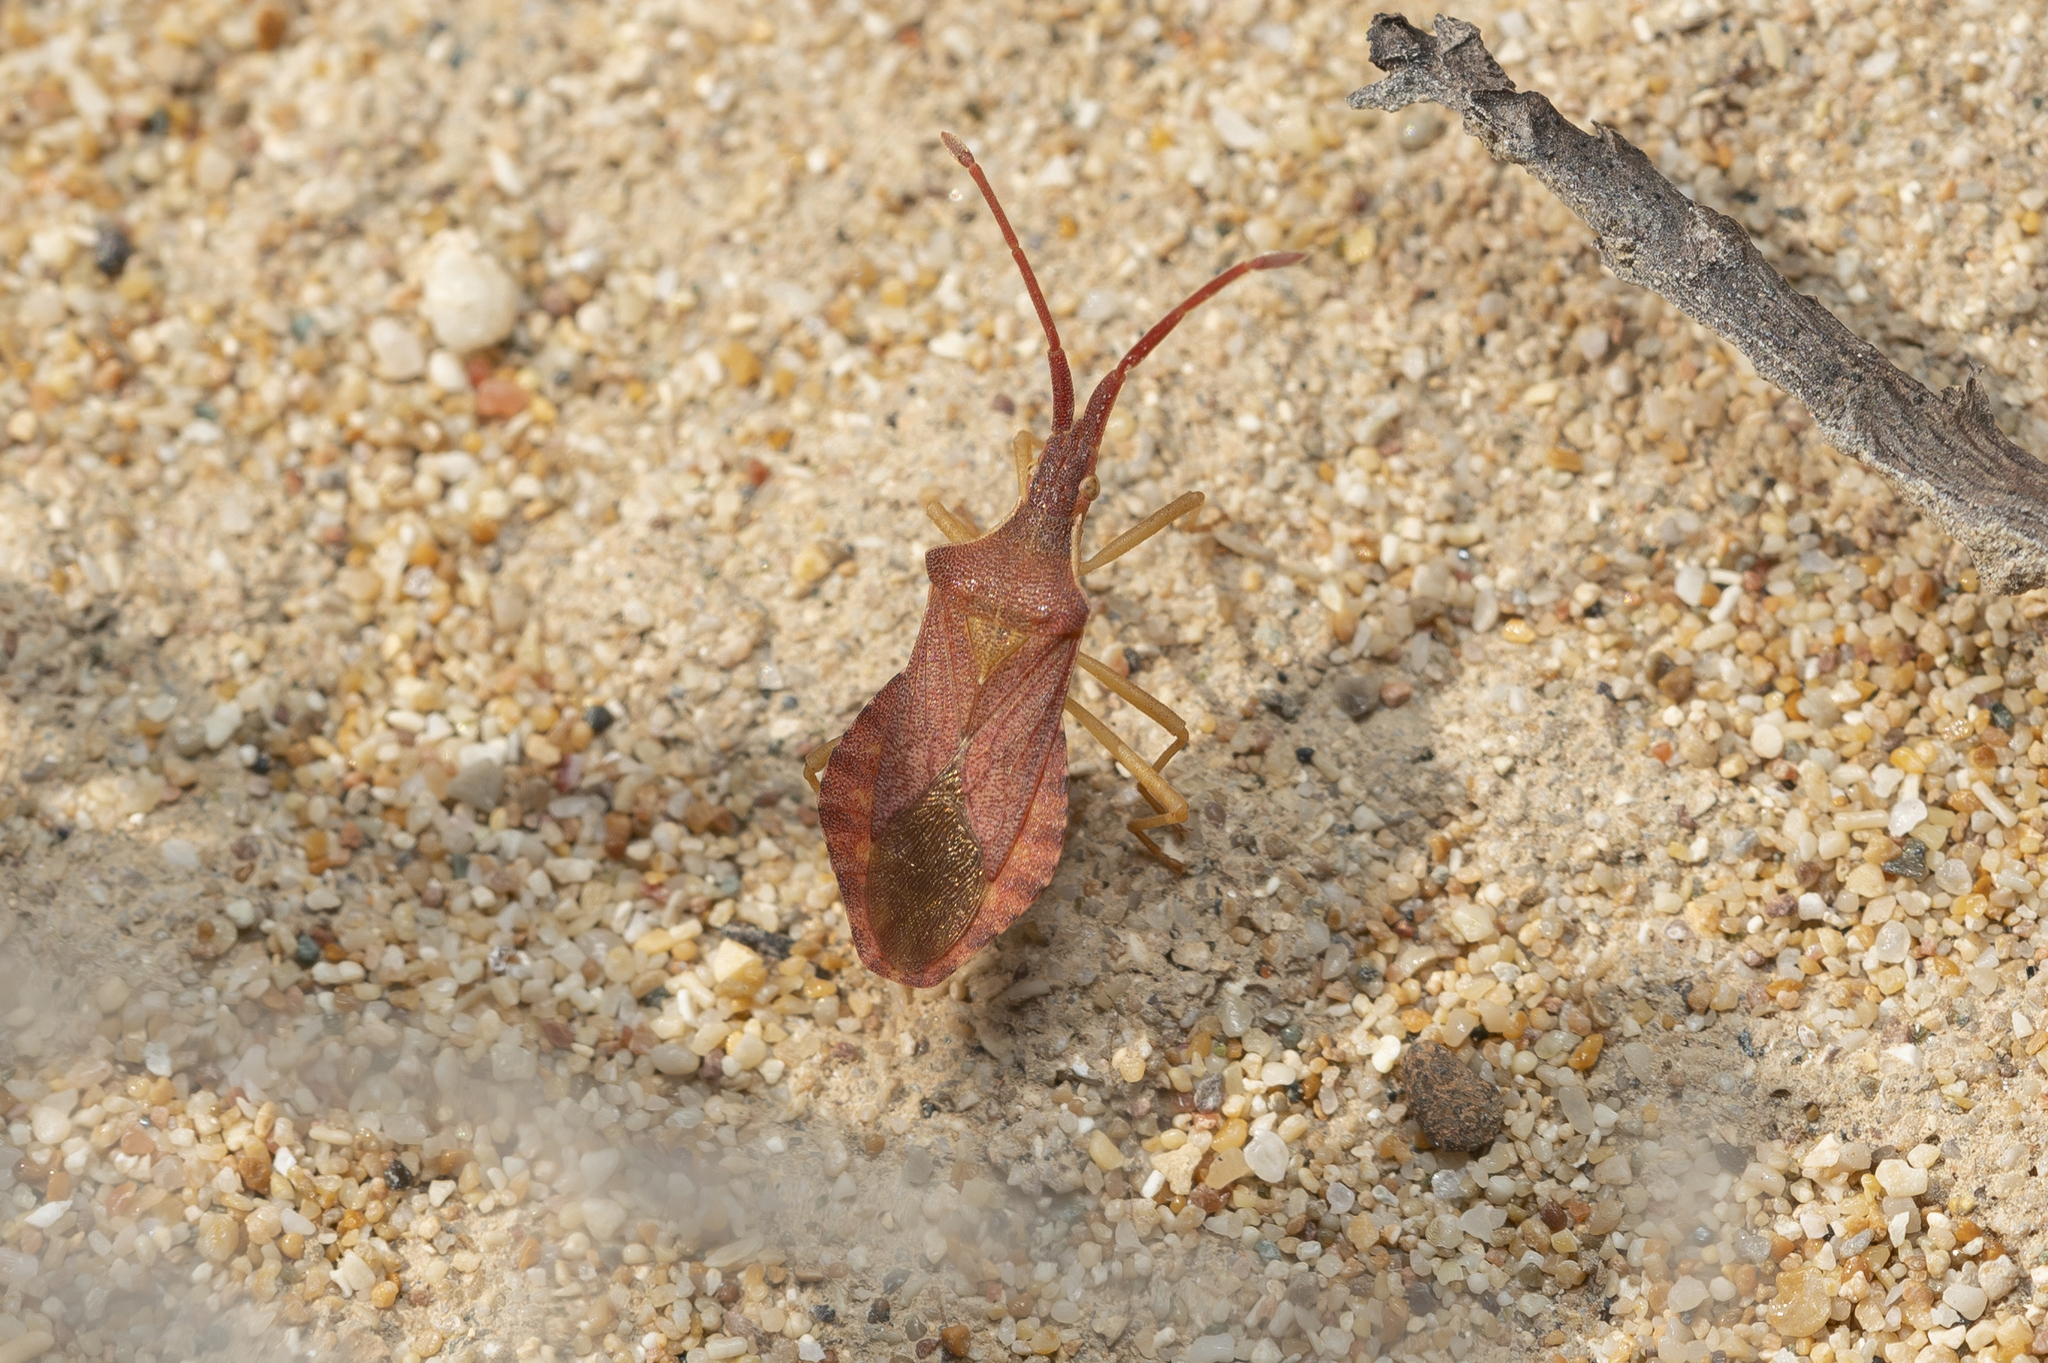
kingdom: Animalia
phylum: Arthropoda
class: Insecta
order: Hemiptera
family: Coreidae
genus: Haploprocta
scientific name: Haploprocta sulcicornis
